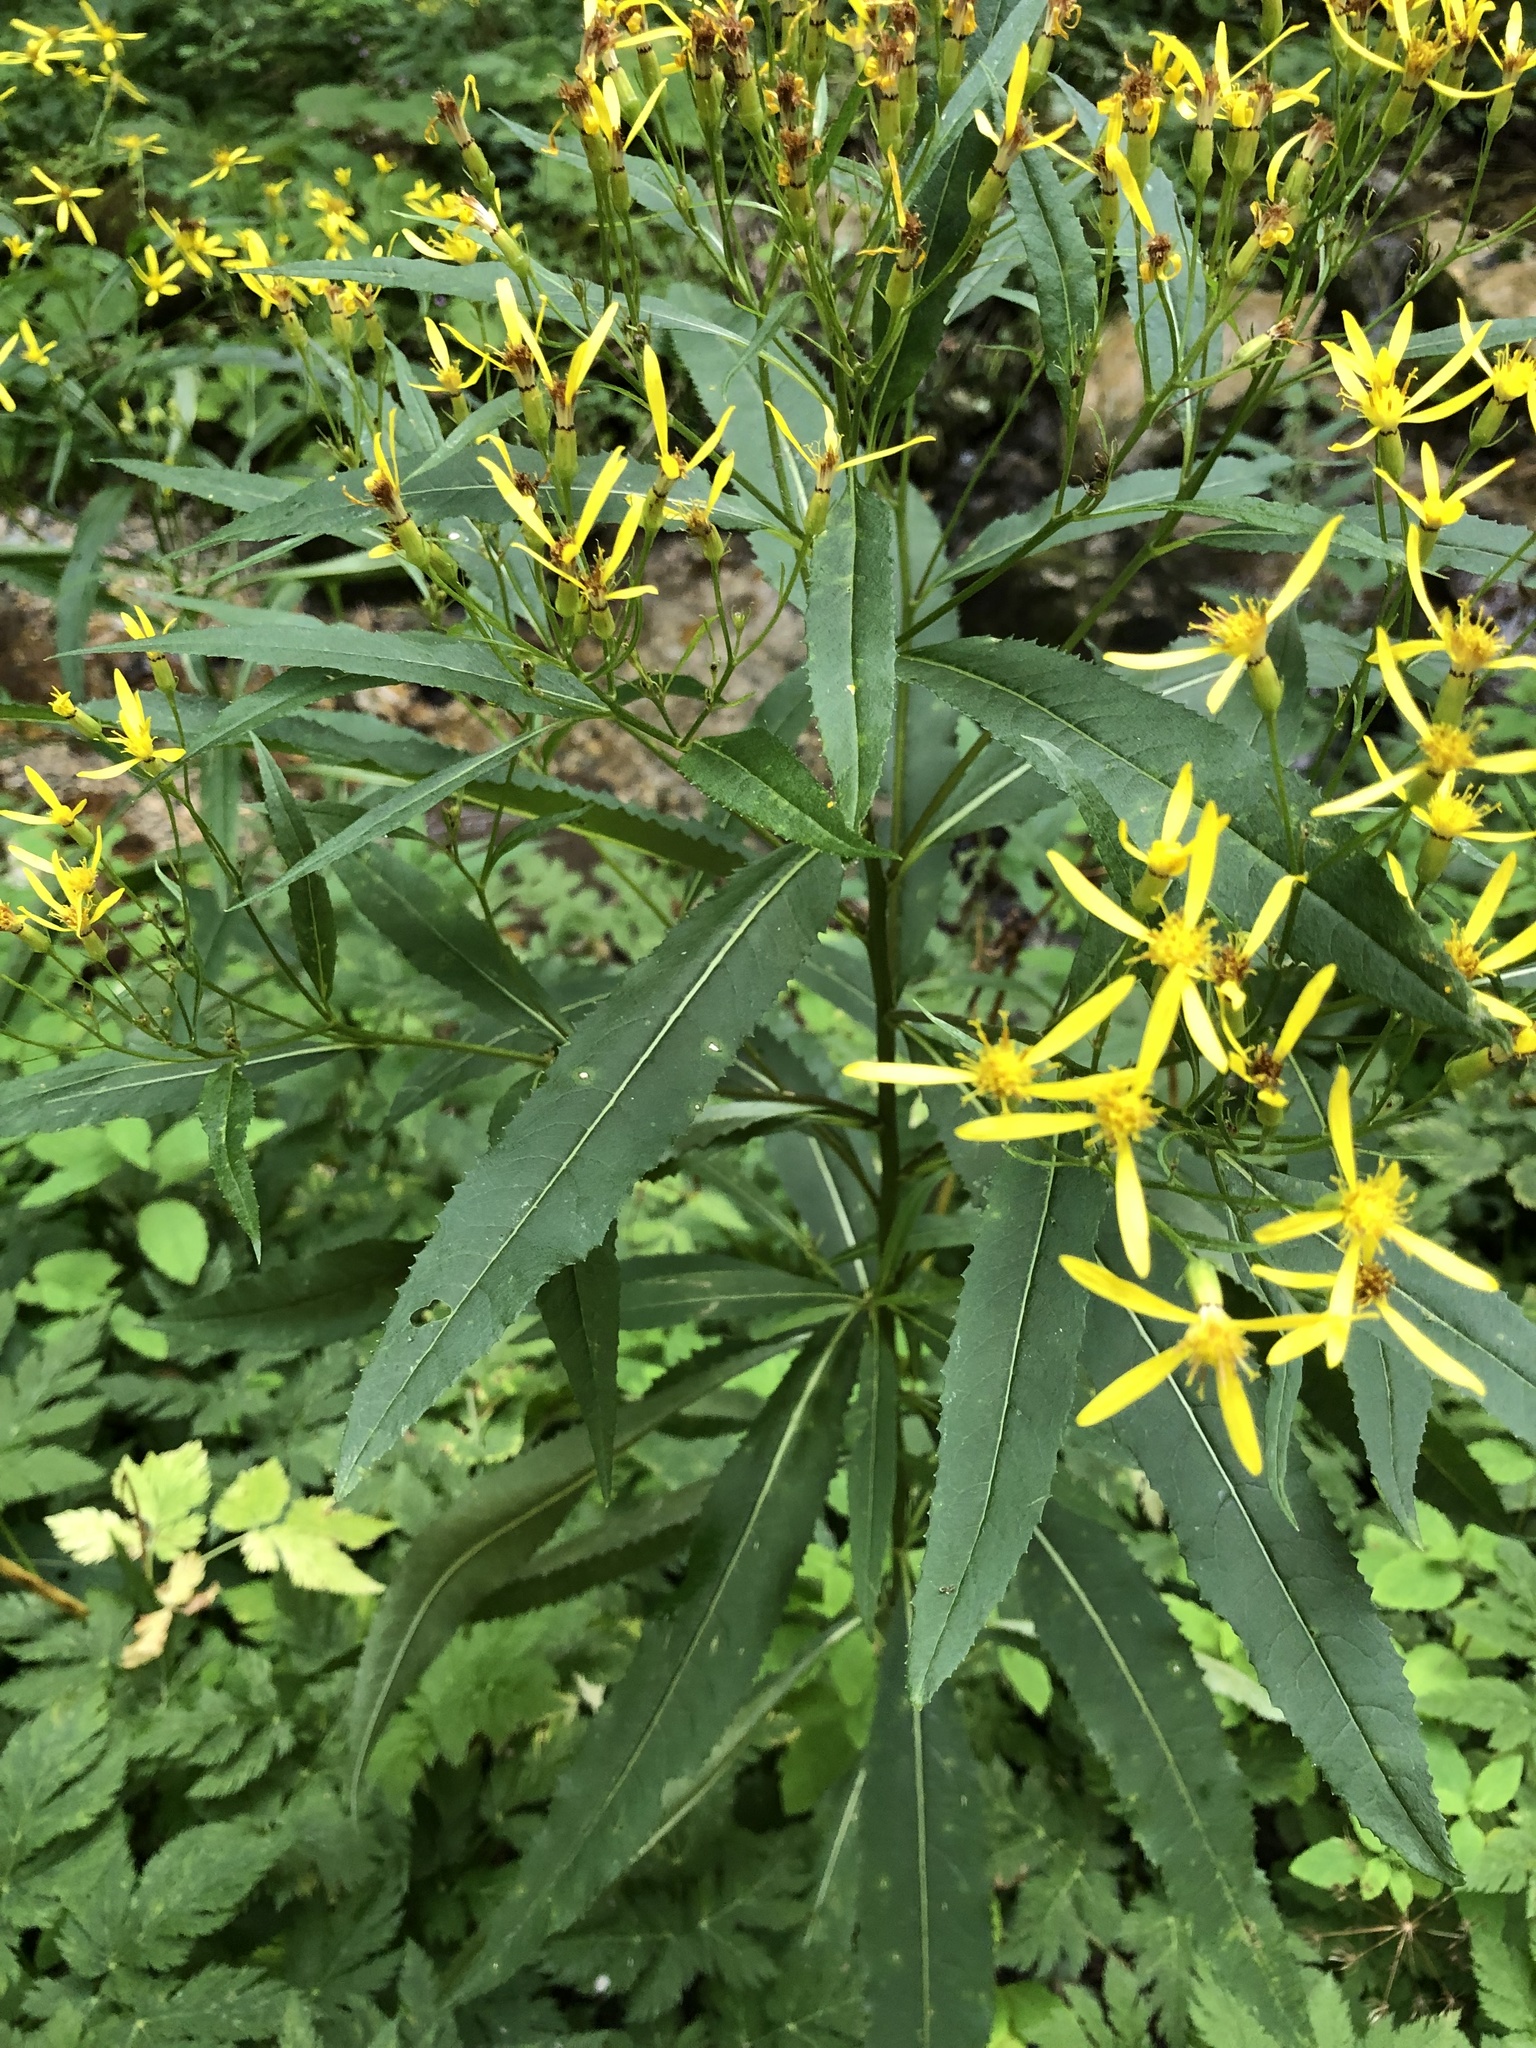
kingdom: Plantae
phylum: Tracheophyta
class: Magnoliopsida
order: Asterales
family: Asteraceae
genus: Senecio
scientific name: Senecio ovatus
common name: Wood ragwort
